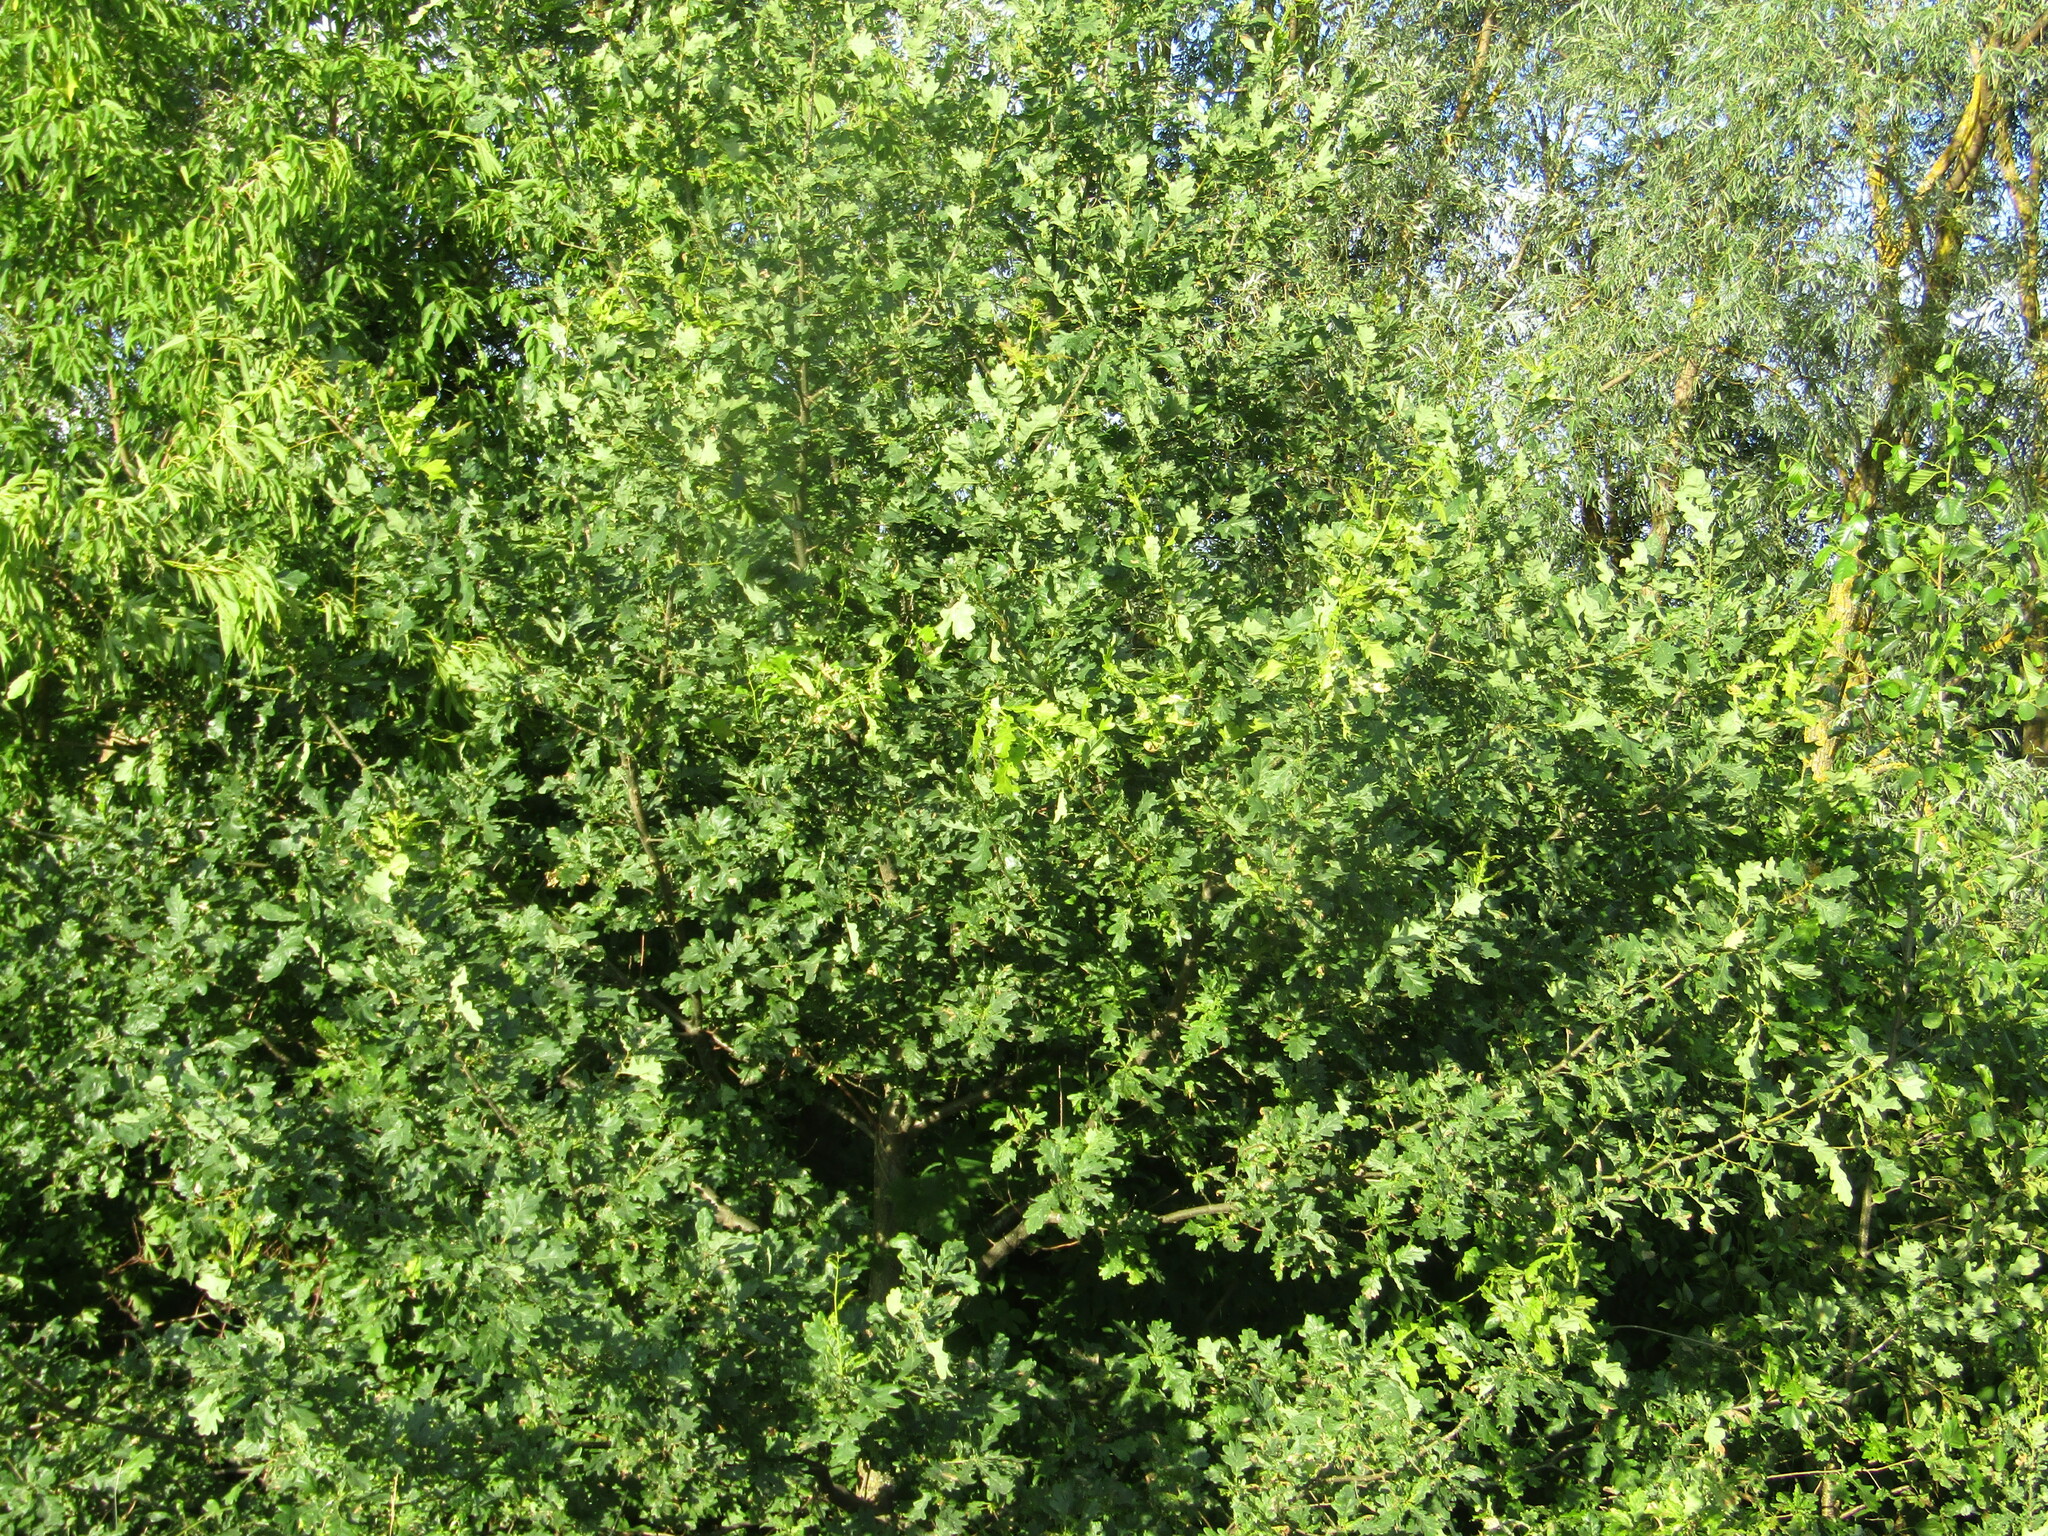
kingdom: Plantae
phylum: Tracheophyta
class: Magnoliopsida
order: Fagales
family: Fagaceae
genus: Quercus
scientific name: Quercus robur
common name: Pedunculate oak
